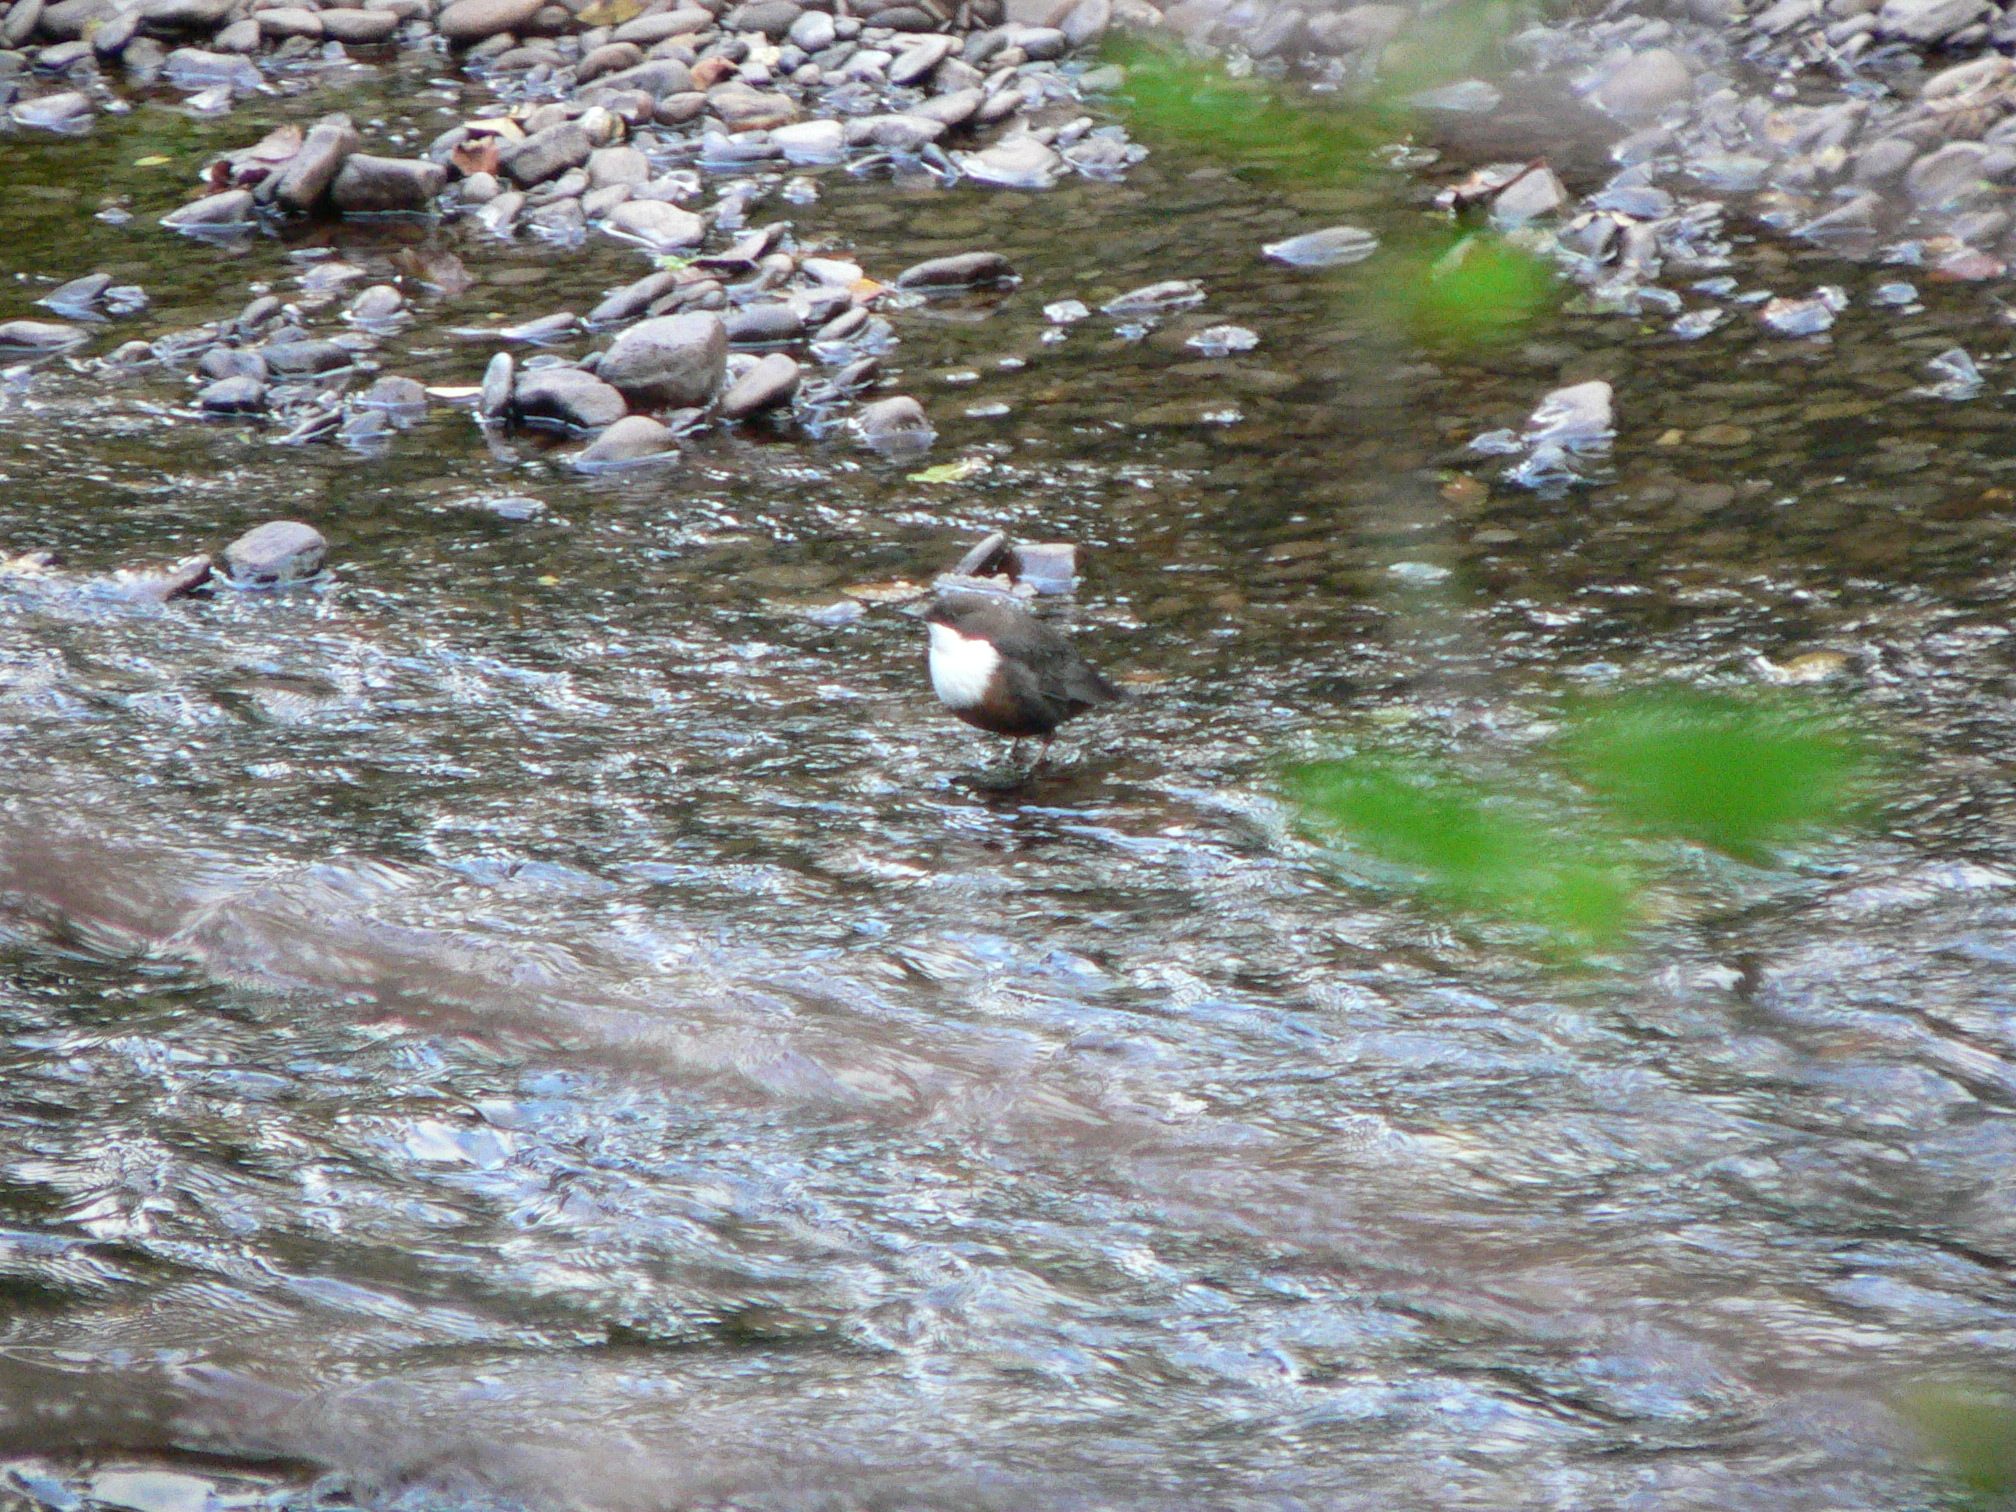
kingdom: Animalia
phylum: Chordata
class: Aves
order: Passeriformes
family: Cinclidae
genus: Cinclus
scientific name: Cinclus cinclus
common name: White-throated dipper
